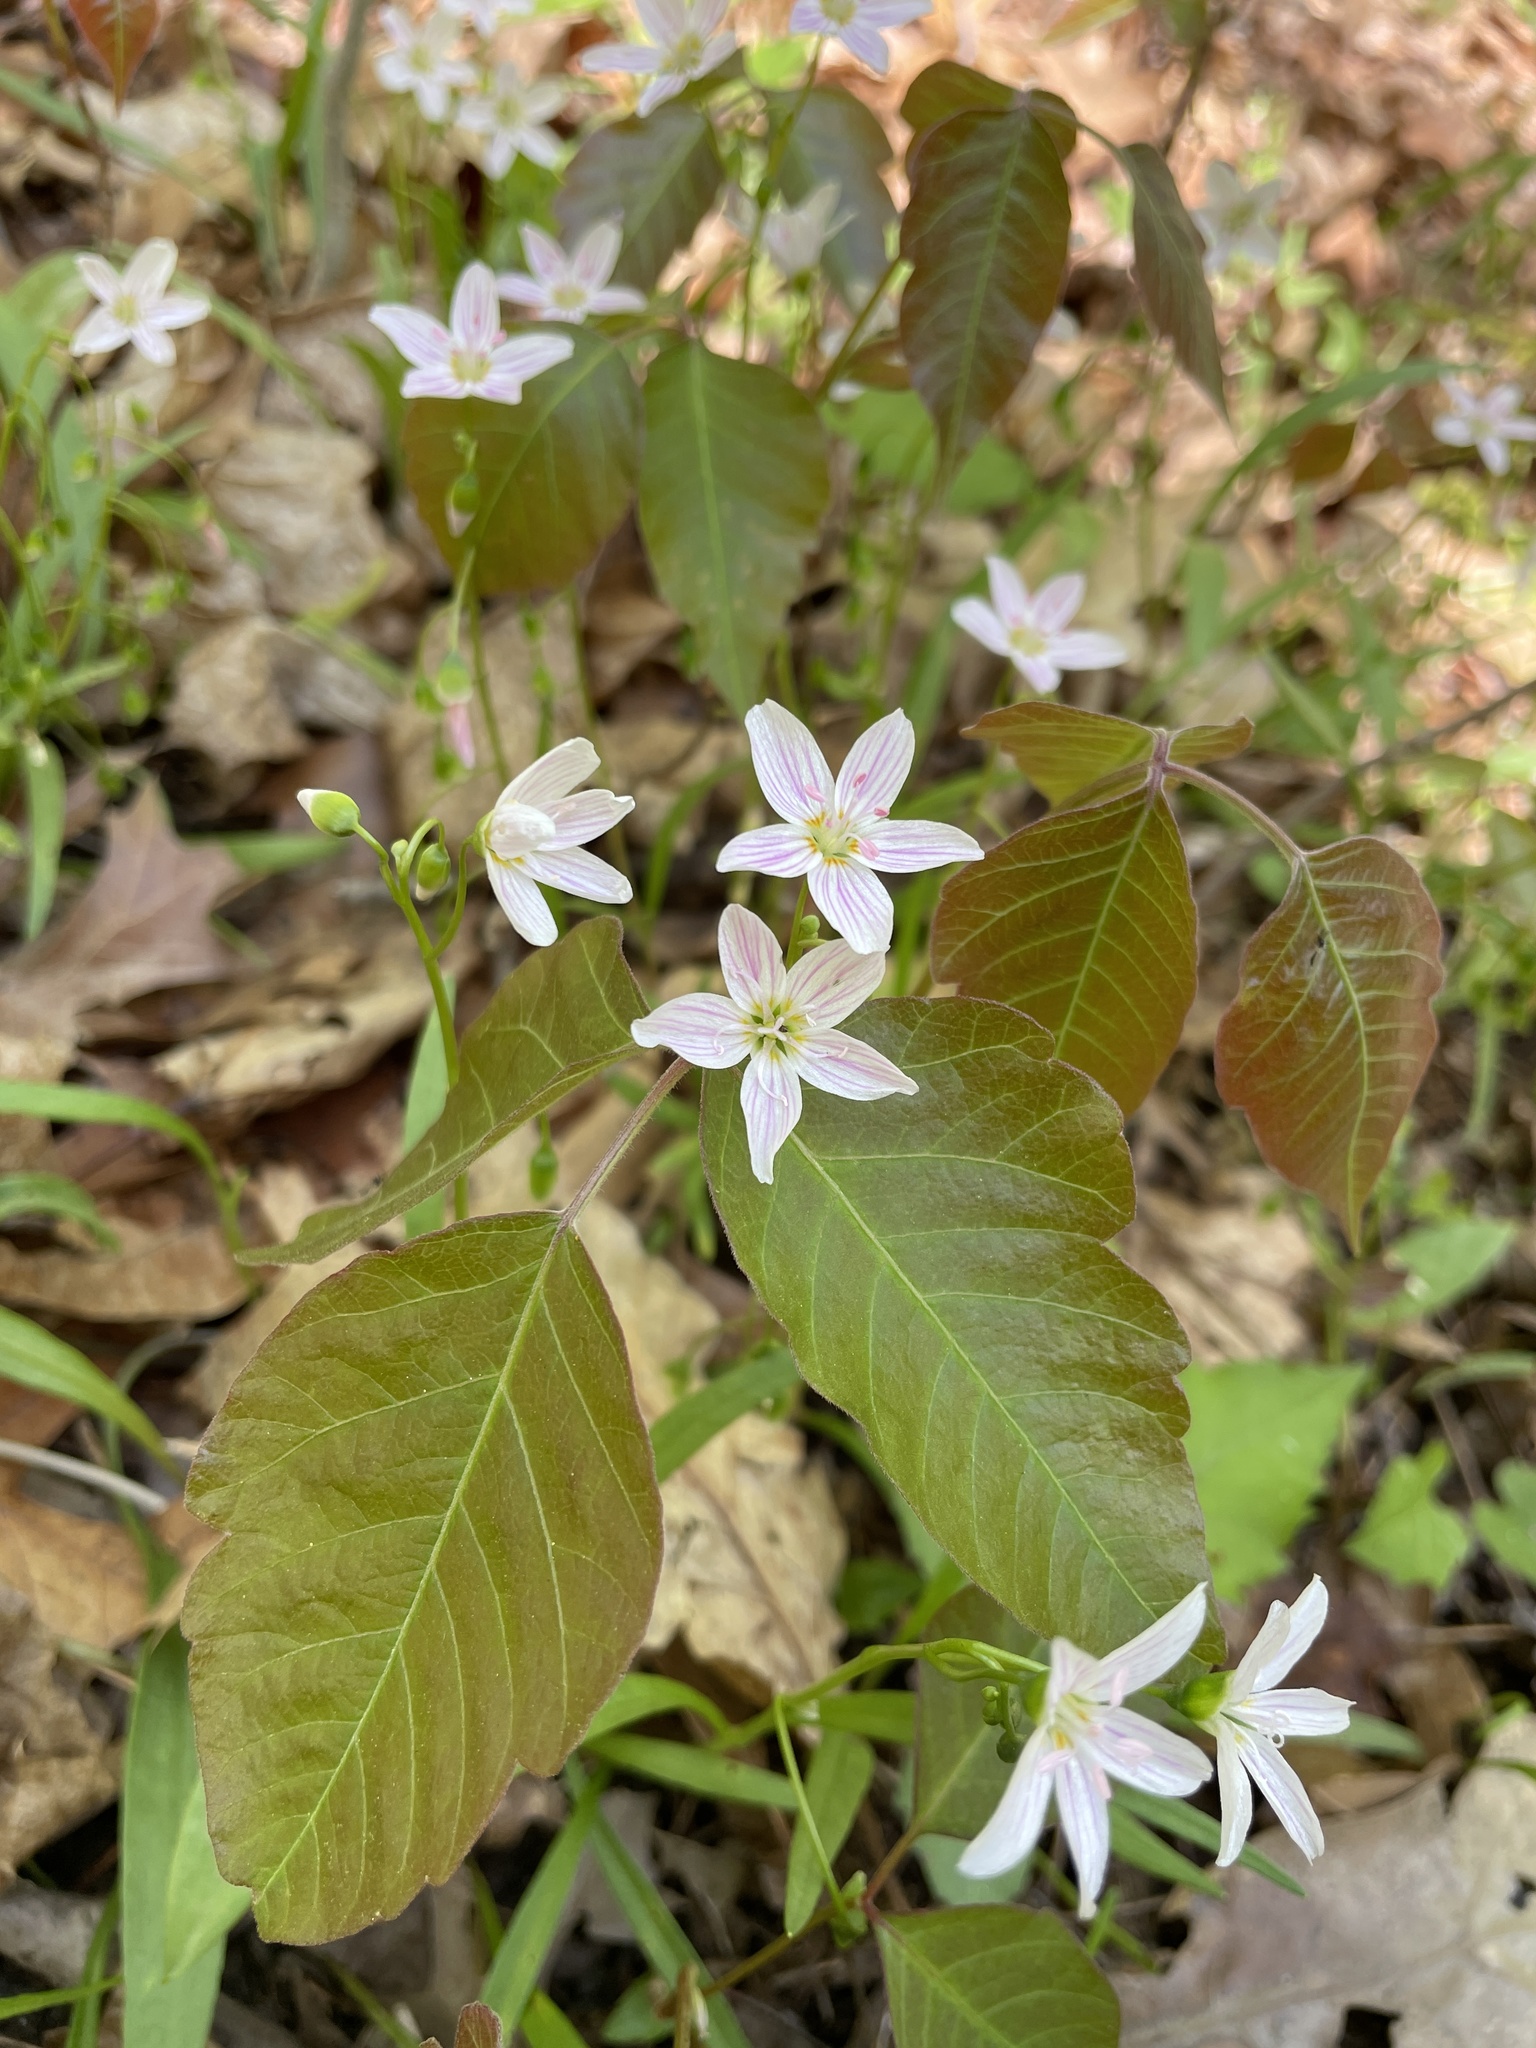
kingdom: Plantae
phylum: Tracheophyta
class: Magnoliopsida
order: Caryophyllales
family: Montiaceae
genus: Claytonia
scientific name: Claytonia virginica
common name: Virginia springbeauty
